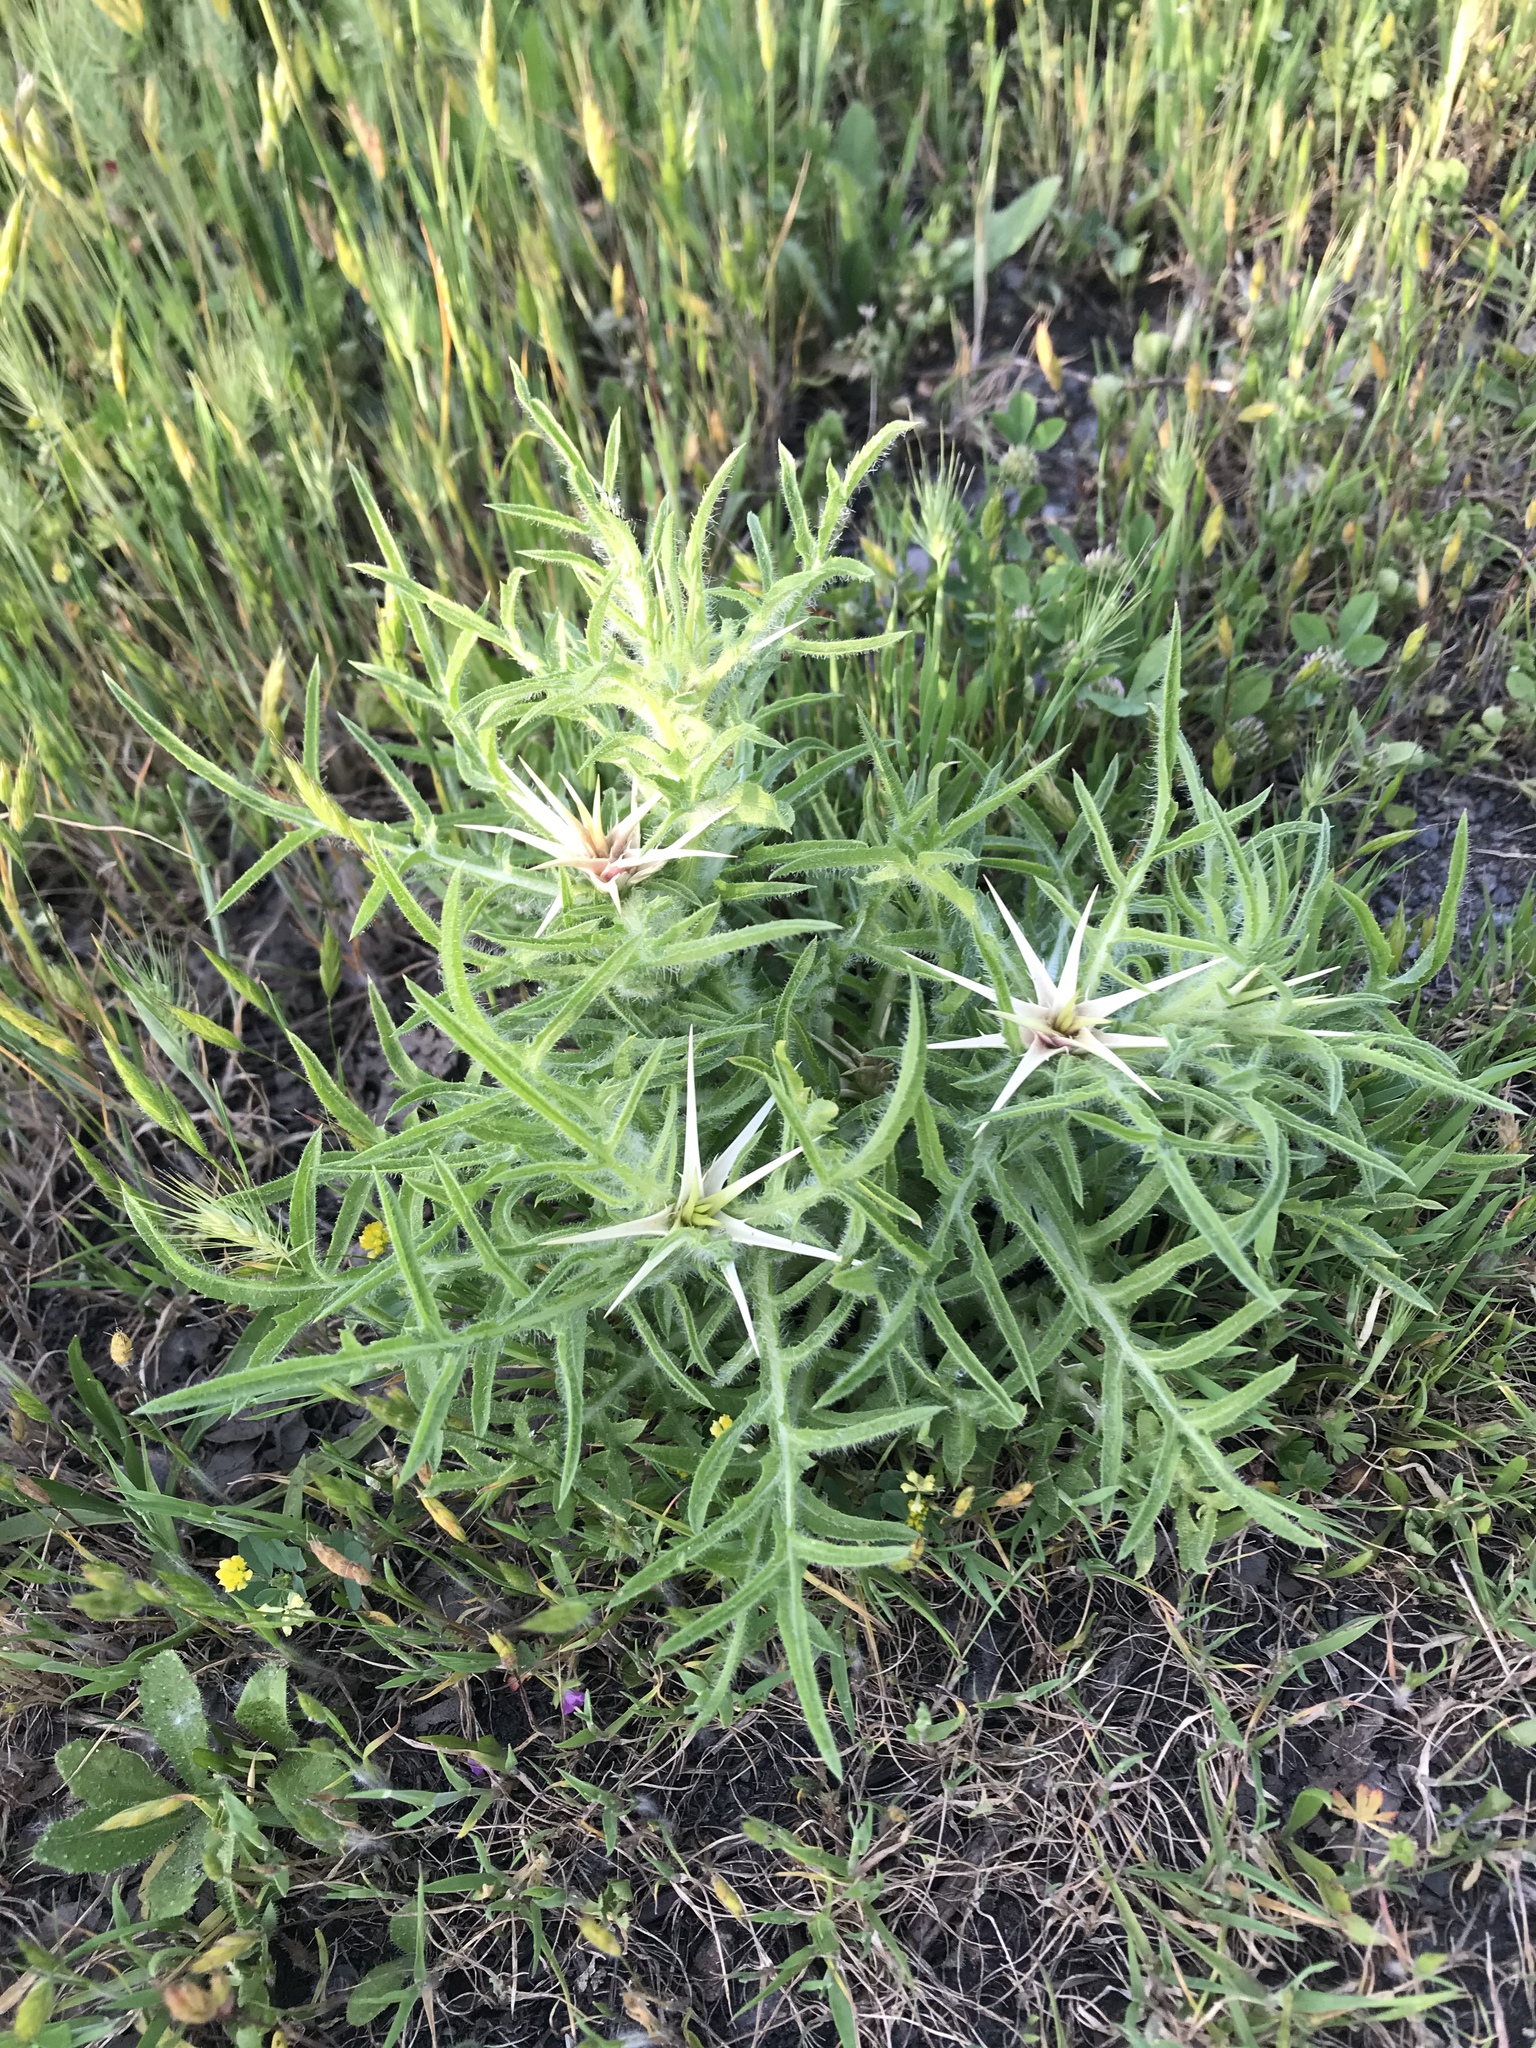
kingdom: Plantae
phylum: Tracheophyta
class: Magnoliopsida
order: Asterales
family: Asteraceae
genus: Centaurea
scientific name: Centaurea calcitrapa
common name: Red star-thistle
